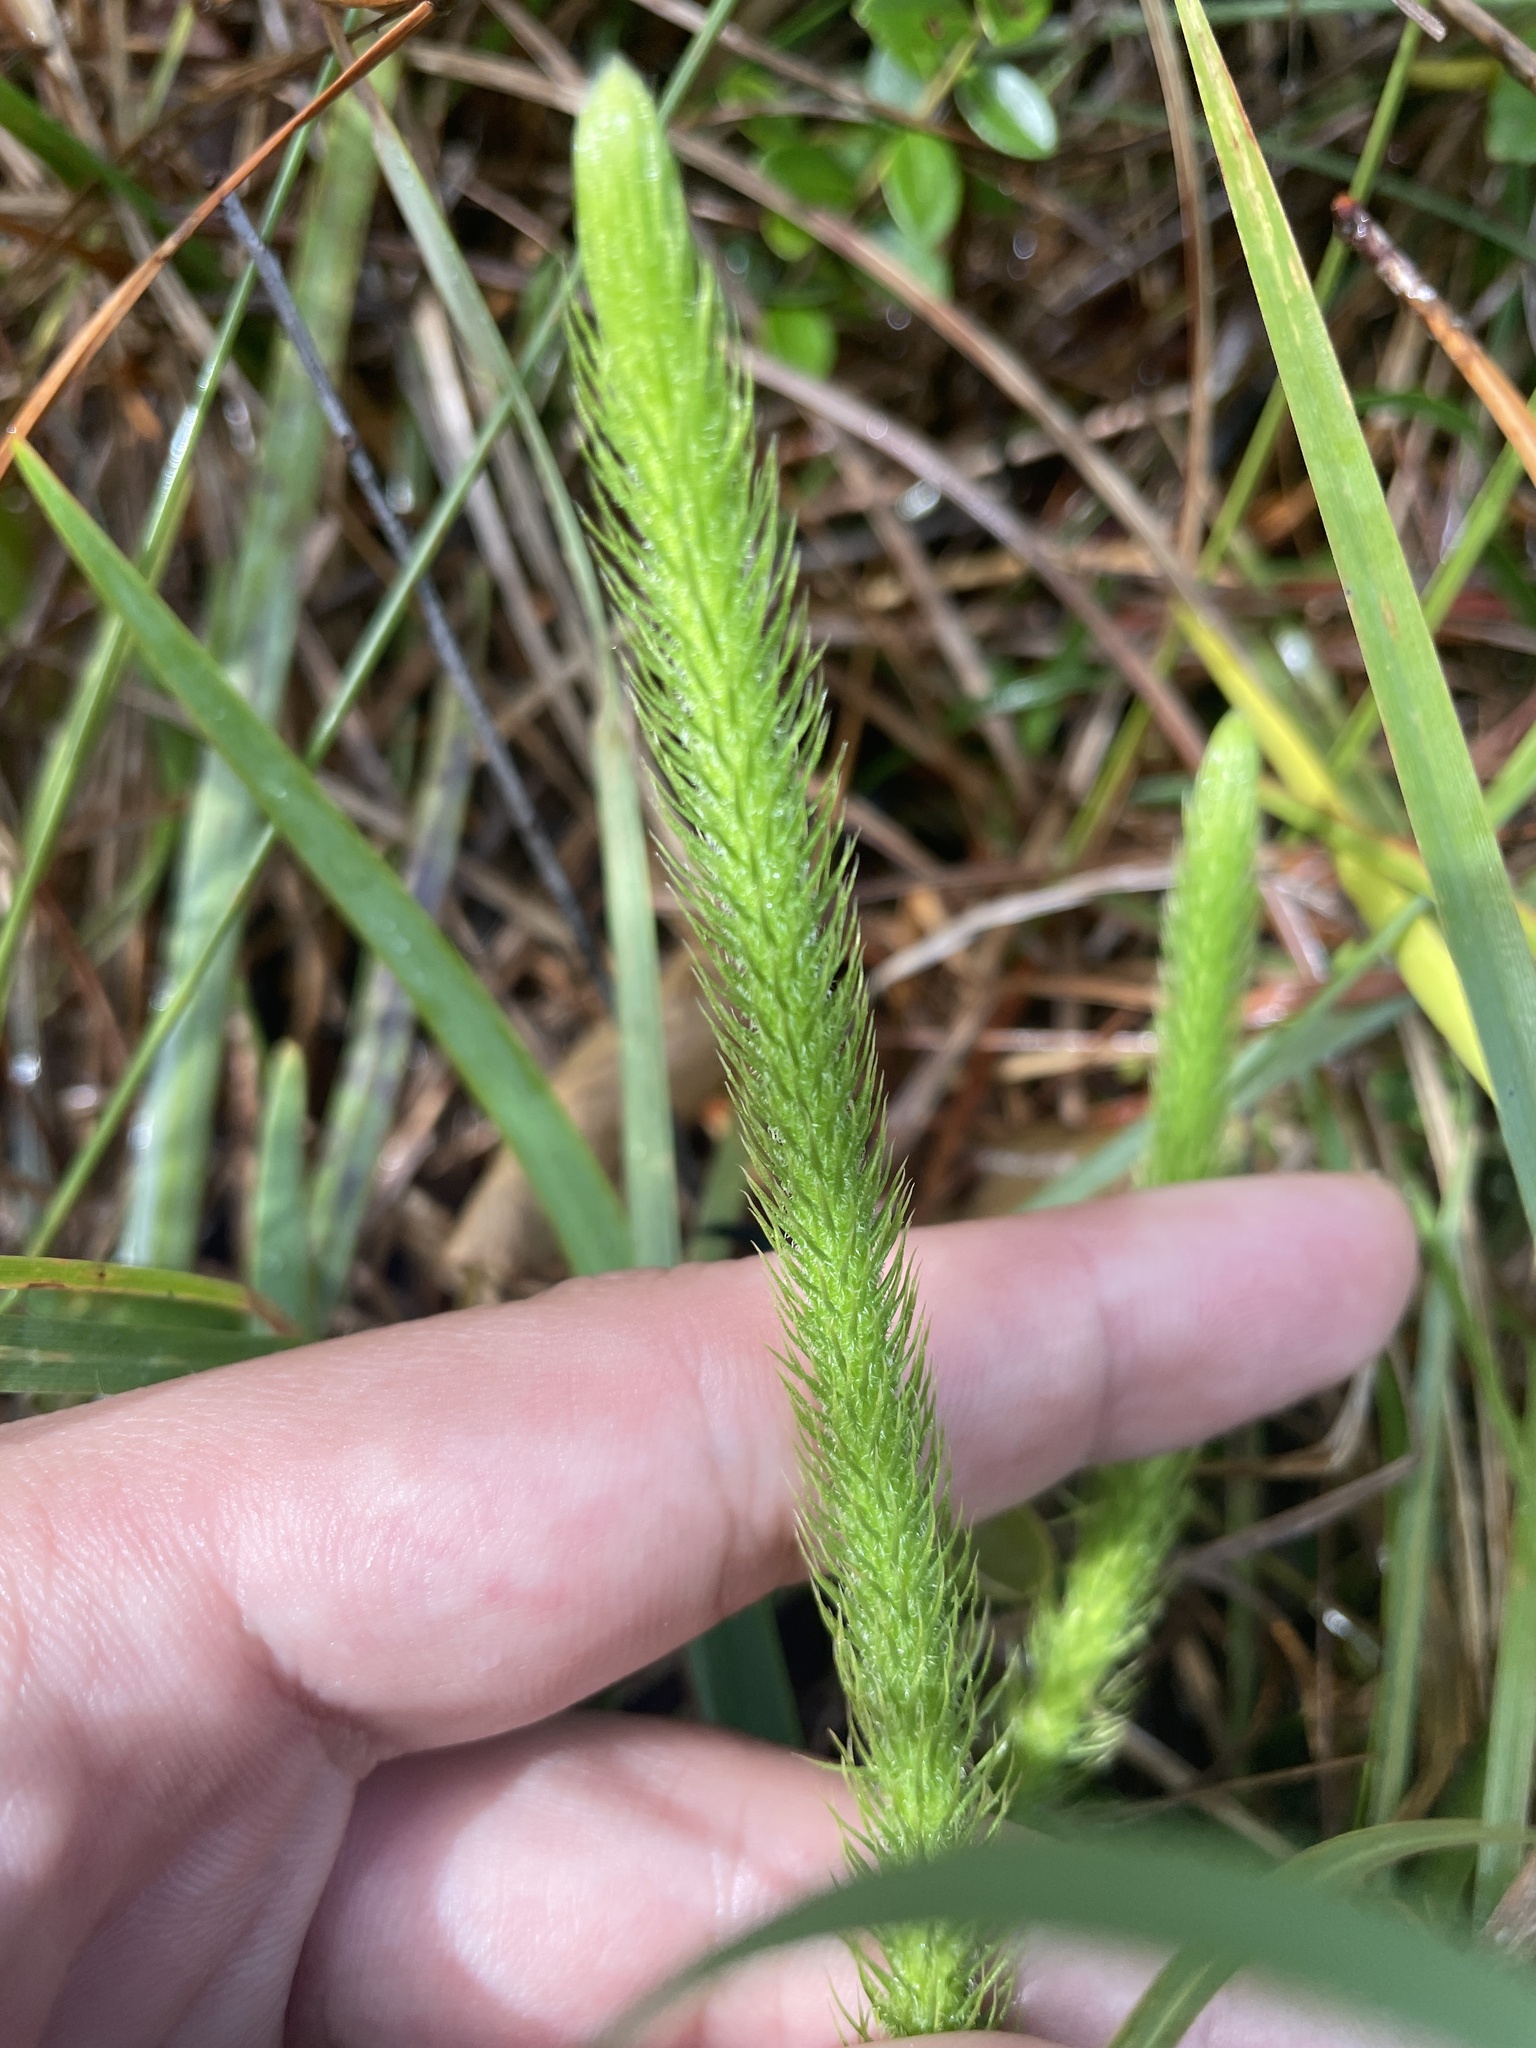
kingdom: Plantae
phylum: Tracheophyta
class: Lycopodiopsida
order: Lycopodiales
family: Lycopodiaceae
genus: Lycopodiella
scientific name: Lycopodiella alopecuroides
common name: Foxtail clubmoss
